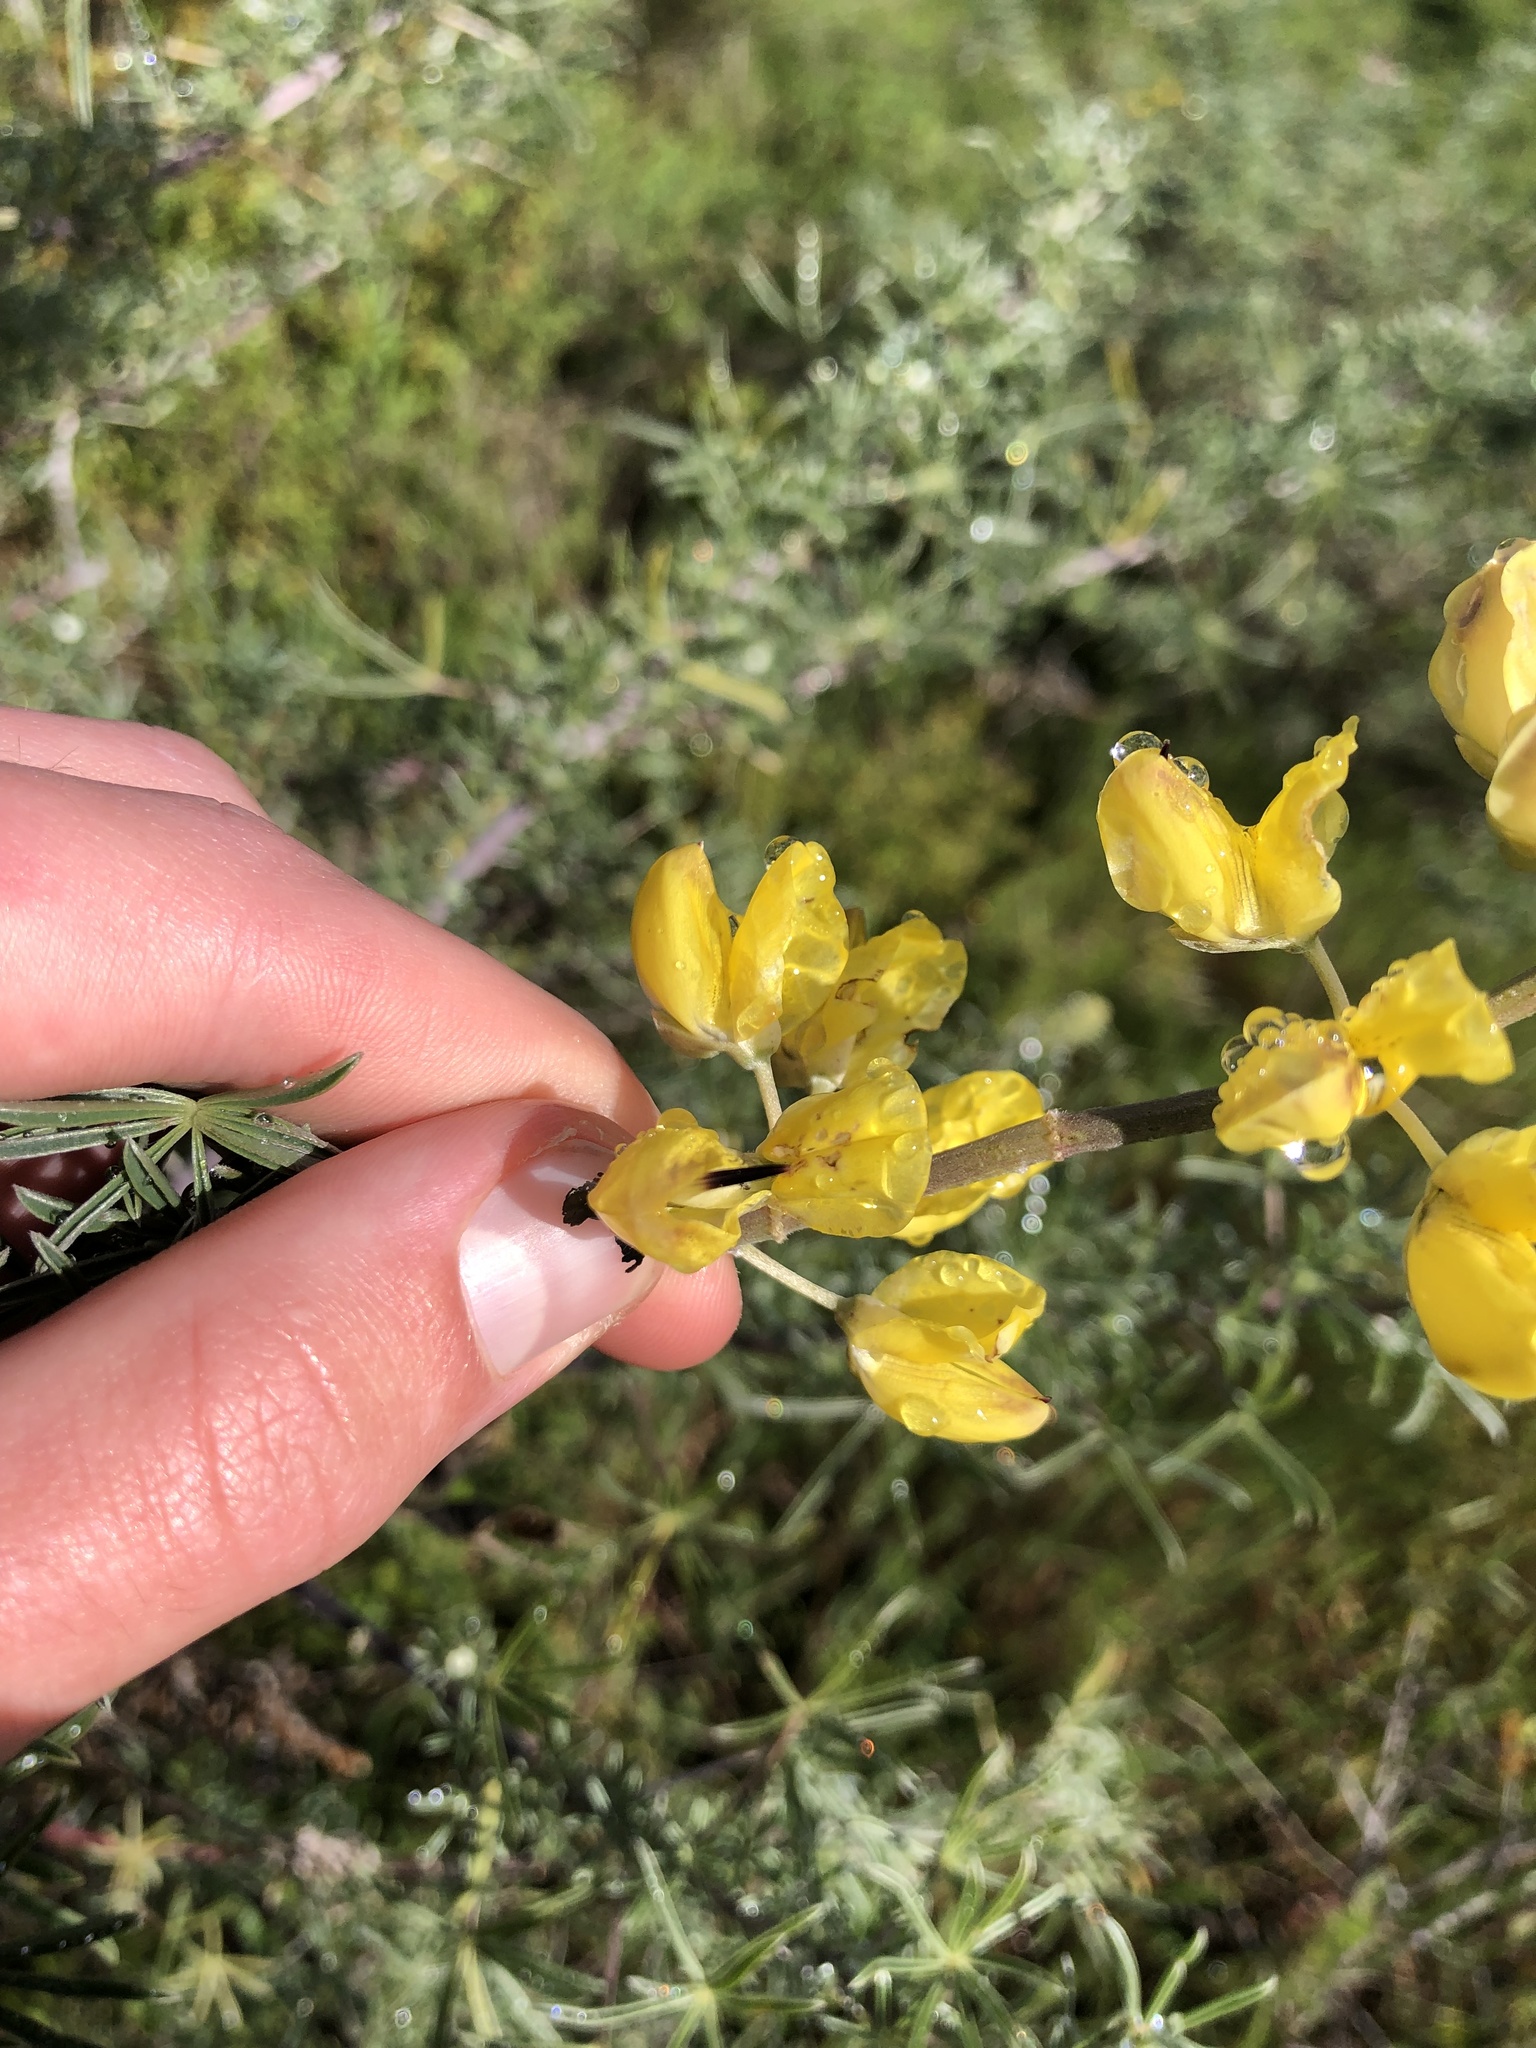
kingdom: Plantae
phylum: Tracheophyta
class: Magnoliopsida
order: Fabales
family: Fabaceae
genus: Lupinus
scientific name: Lupinus arboreus
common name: Yellow bush lupine
